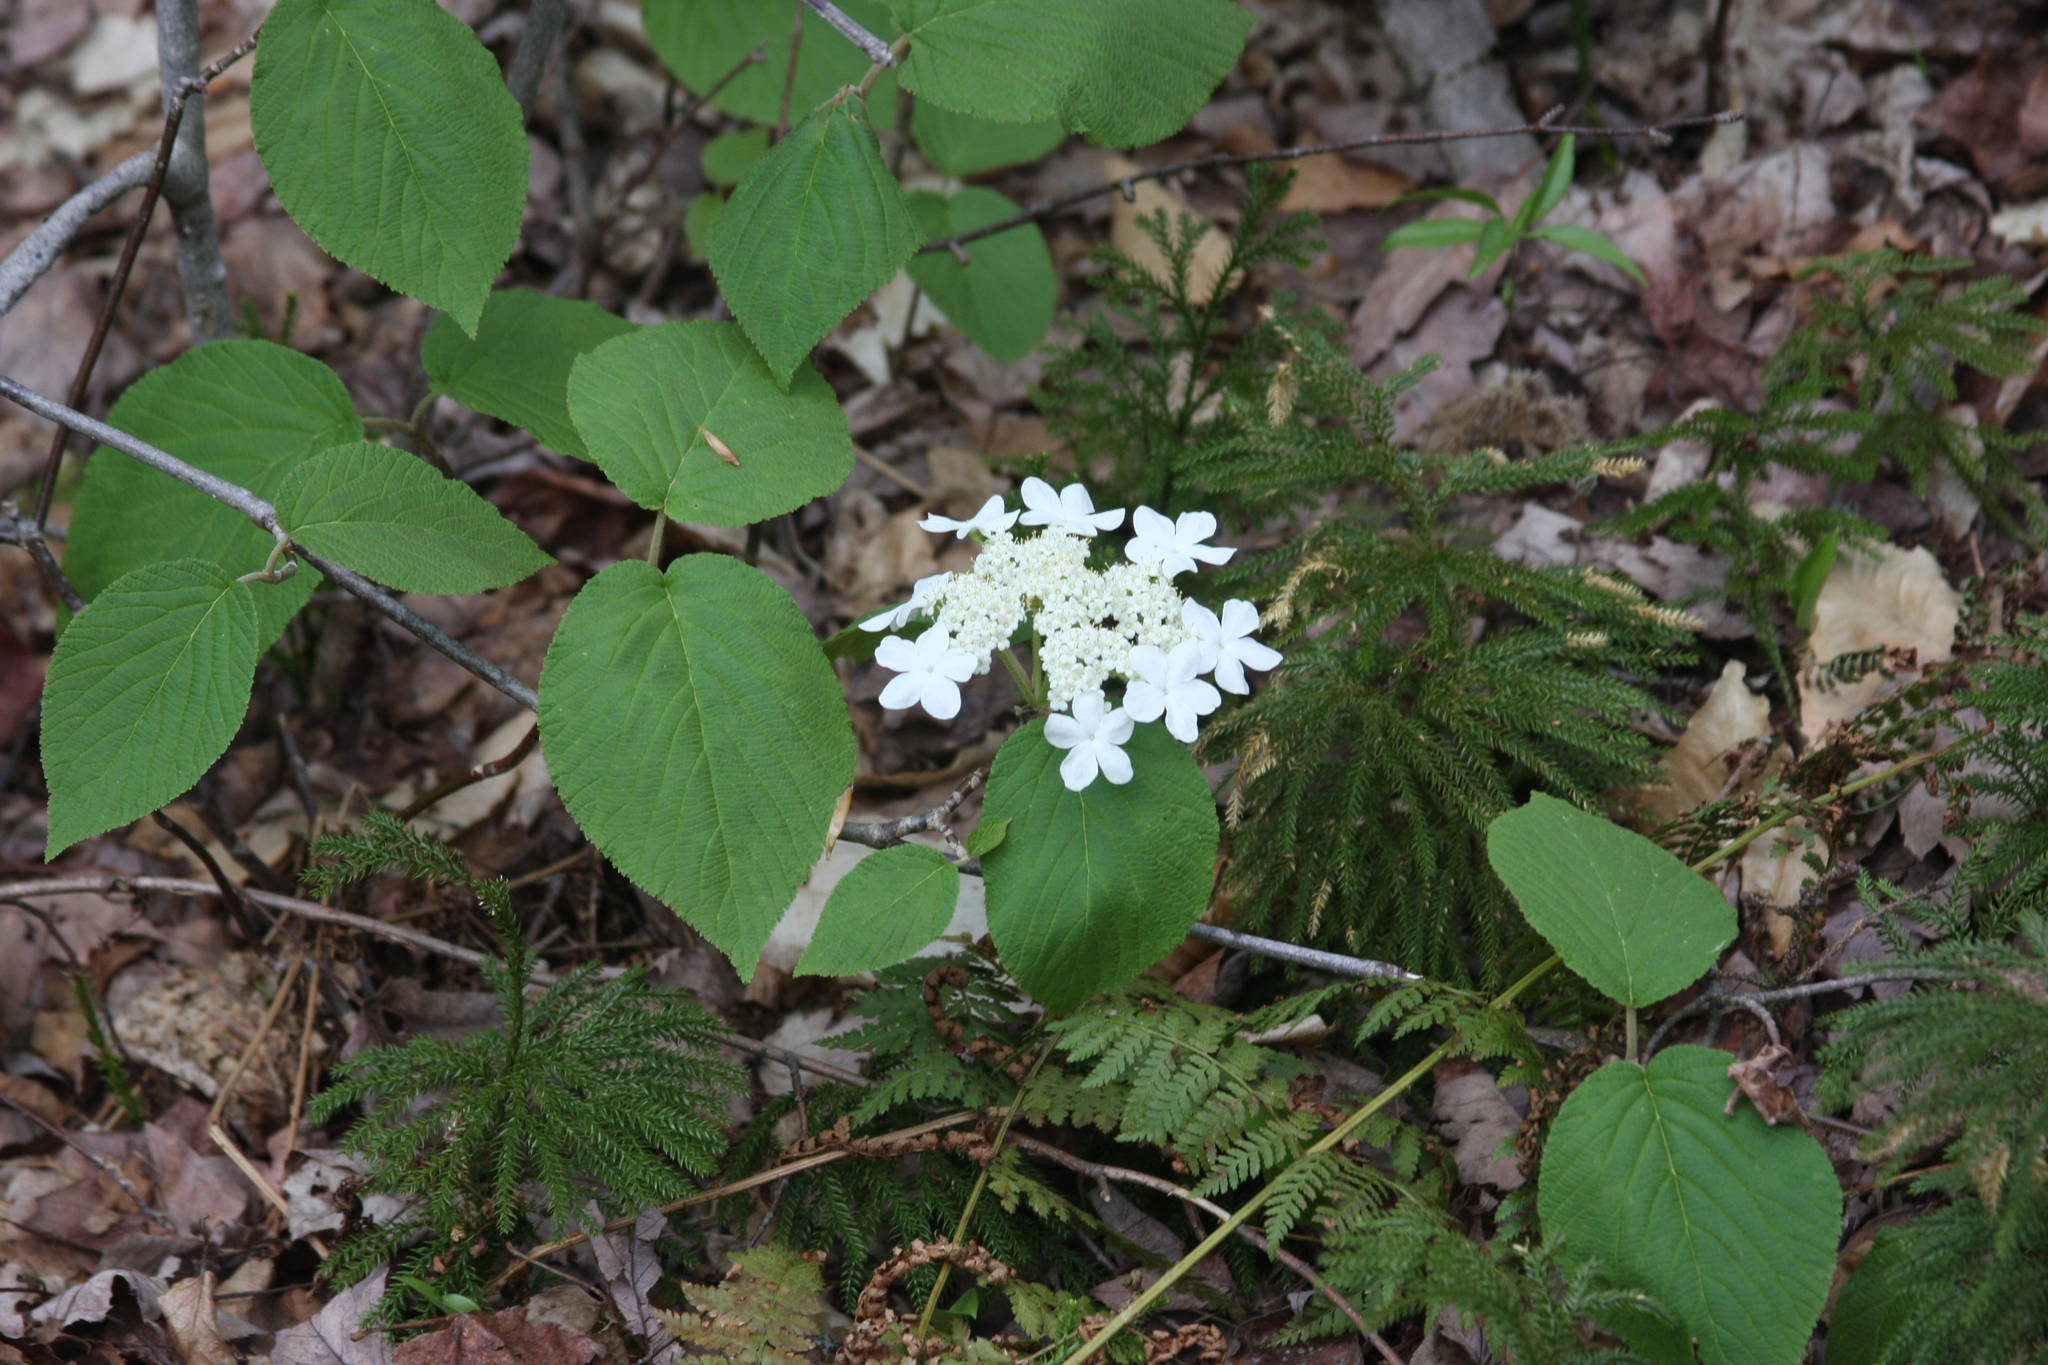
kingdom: Plantae
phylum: Tracheophyta
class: Magnoliopsida
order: Dipsacales
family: Viburnaceae
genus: Viburnum
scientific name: Viburnum lantanoides
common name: Hobblebush
